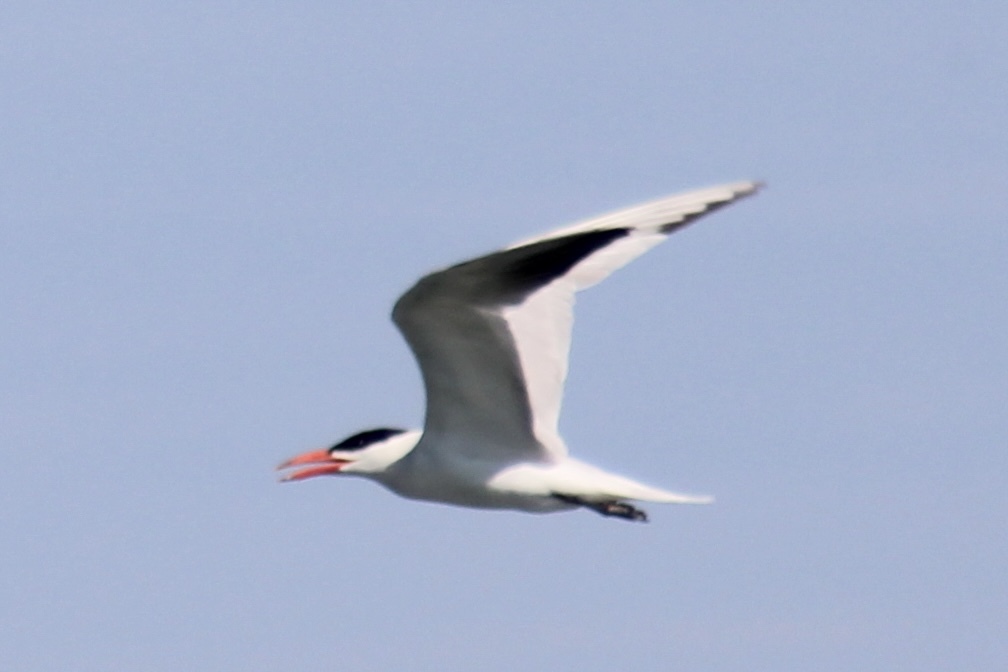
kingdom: Animalia
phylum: Chordata
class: Aves
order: Charadriiformes
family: Laridae
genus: Hydroprogne
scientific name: Hydroprogne caspia
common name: Caspian tern
